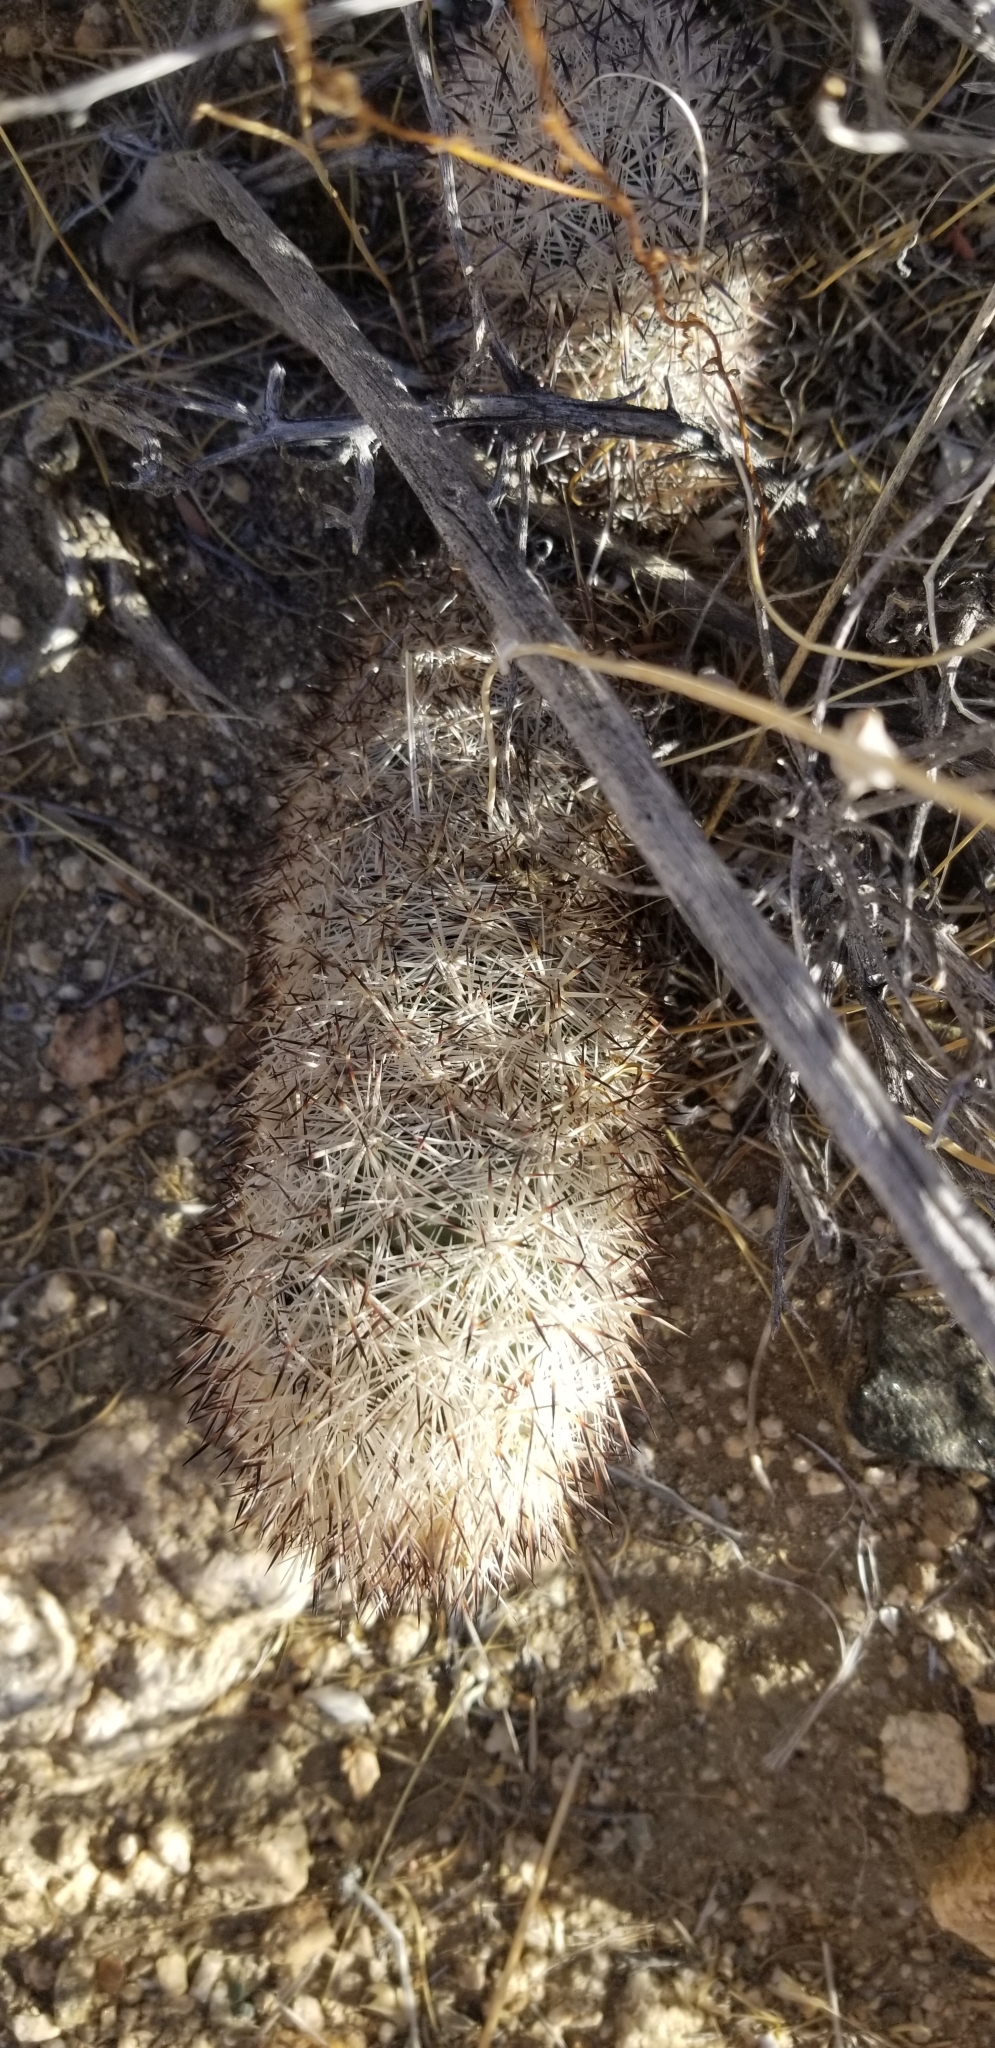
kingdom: Plantae
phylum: Tracheophyta
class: Magnoliopsida
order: Caryophyllales
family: Cactaceae
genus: Pelecyphora
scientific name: Pelecyphora alversonii
